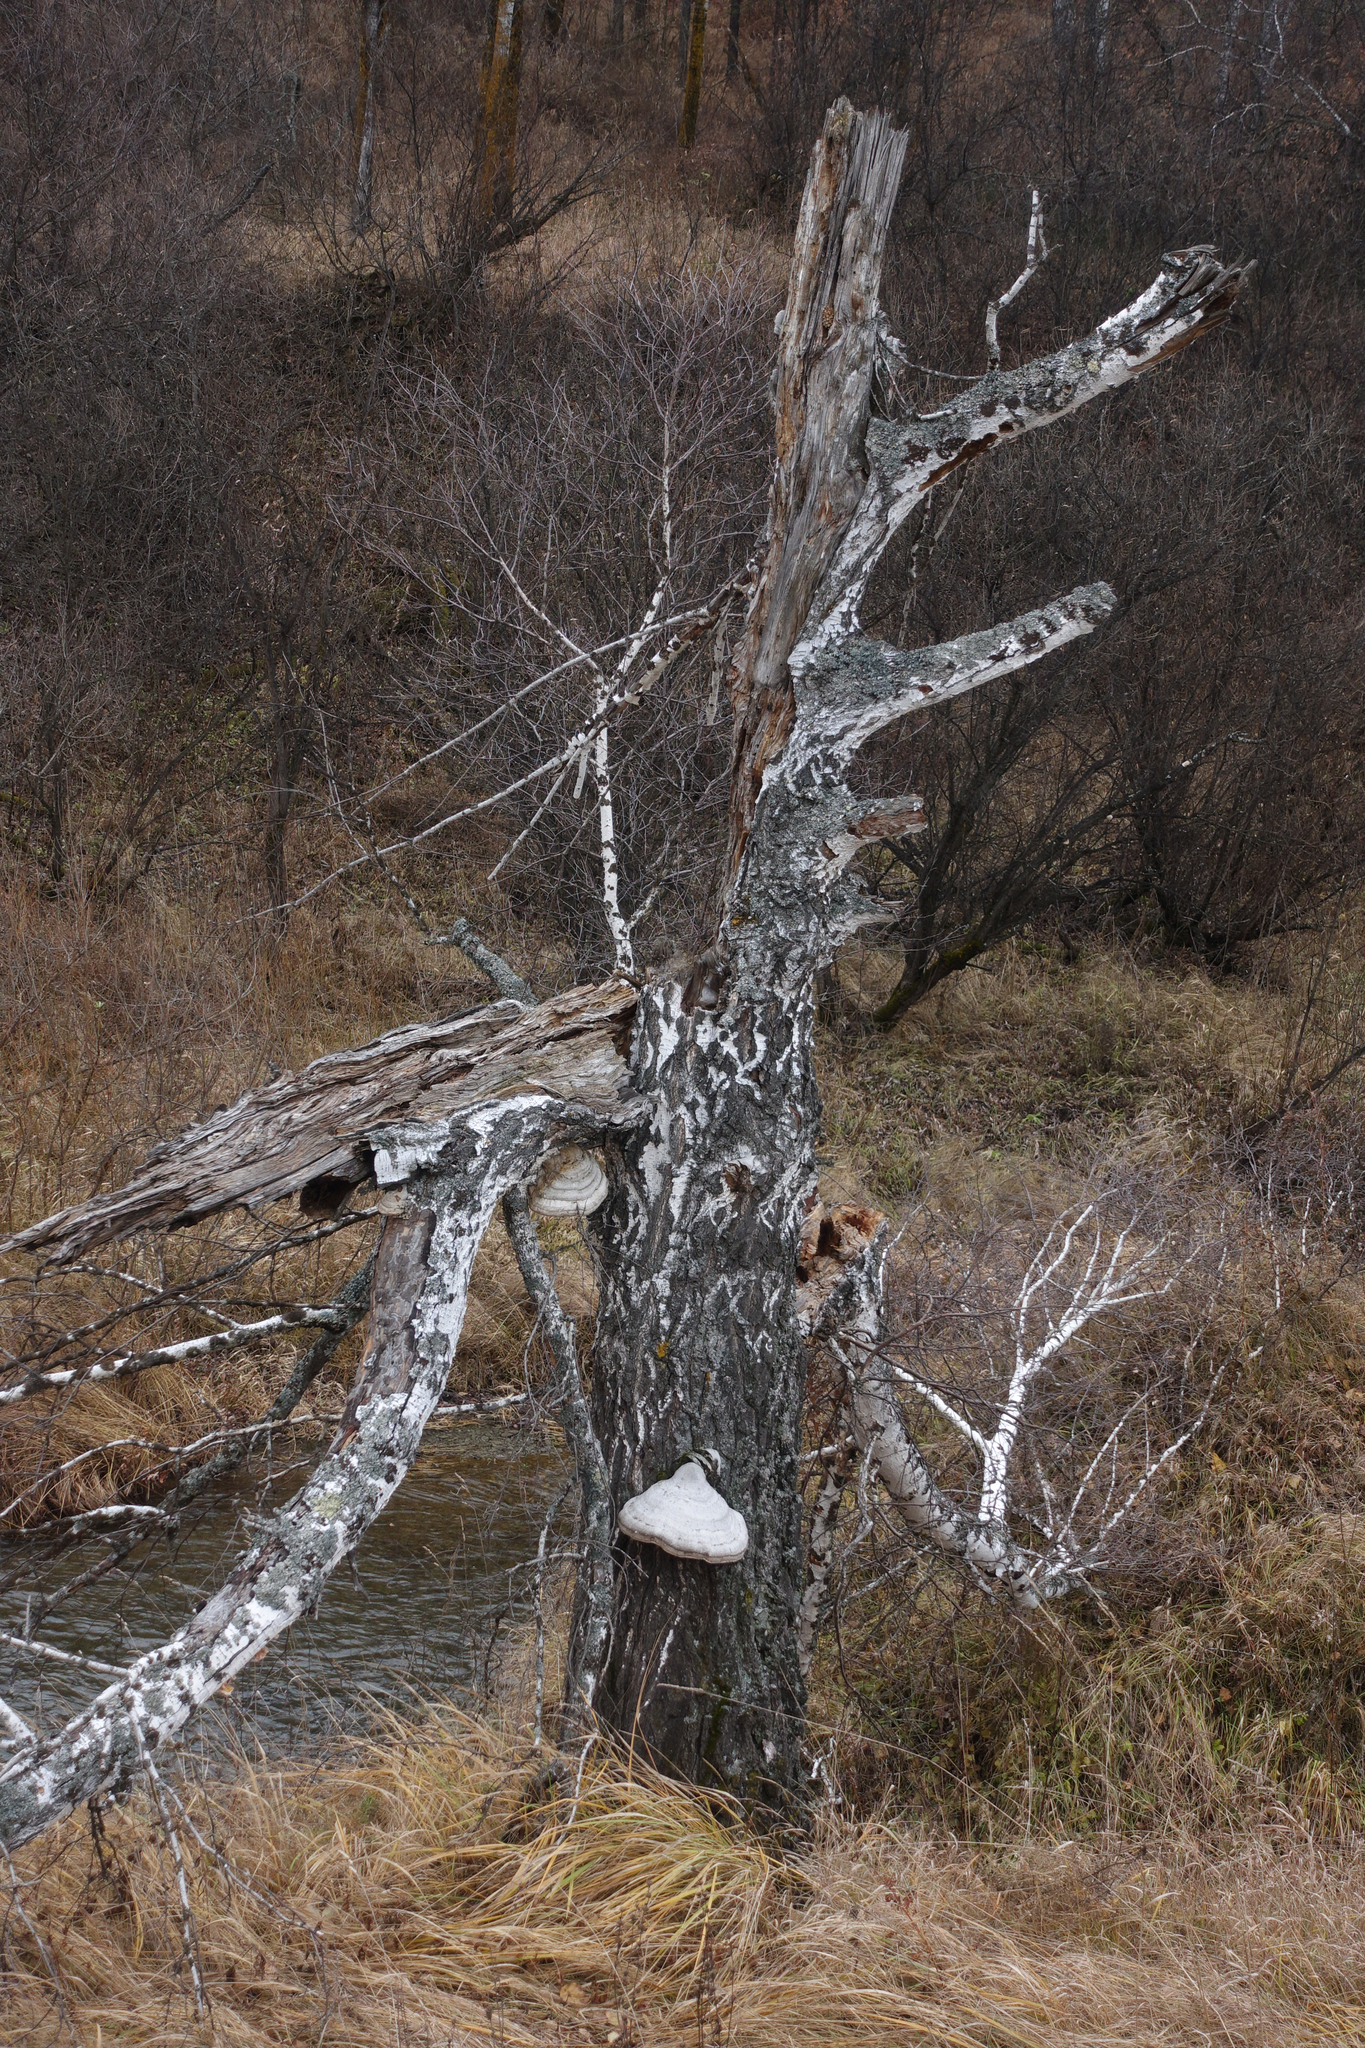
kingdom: Fungi
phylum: Basidiomycota
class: Agaricomycetes
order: Polyporales
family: Polyporaceae
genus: Fomes
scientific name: Fomes fomentarius
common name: Hoof fungus
